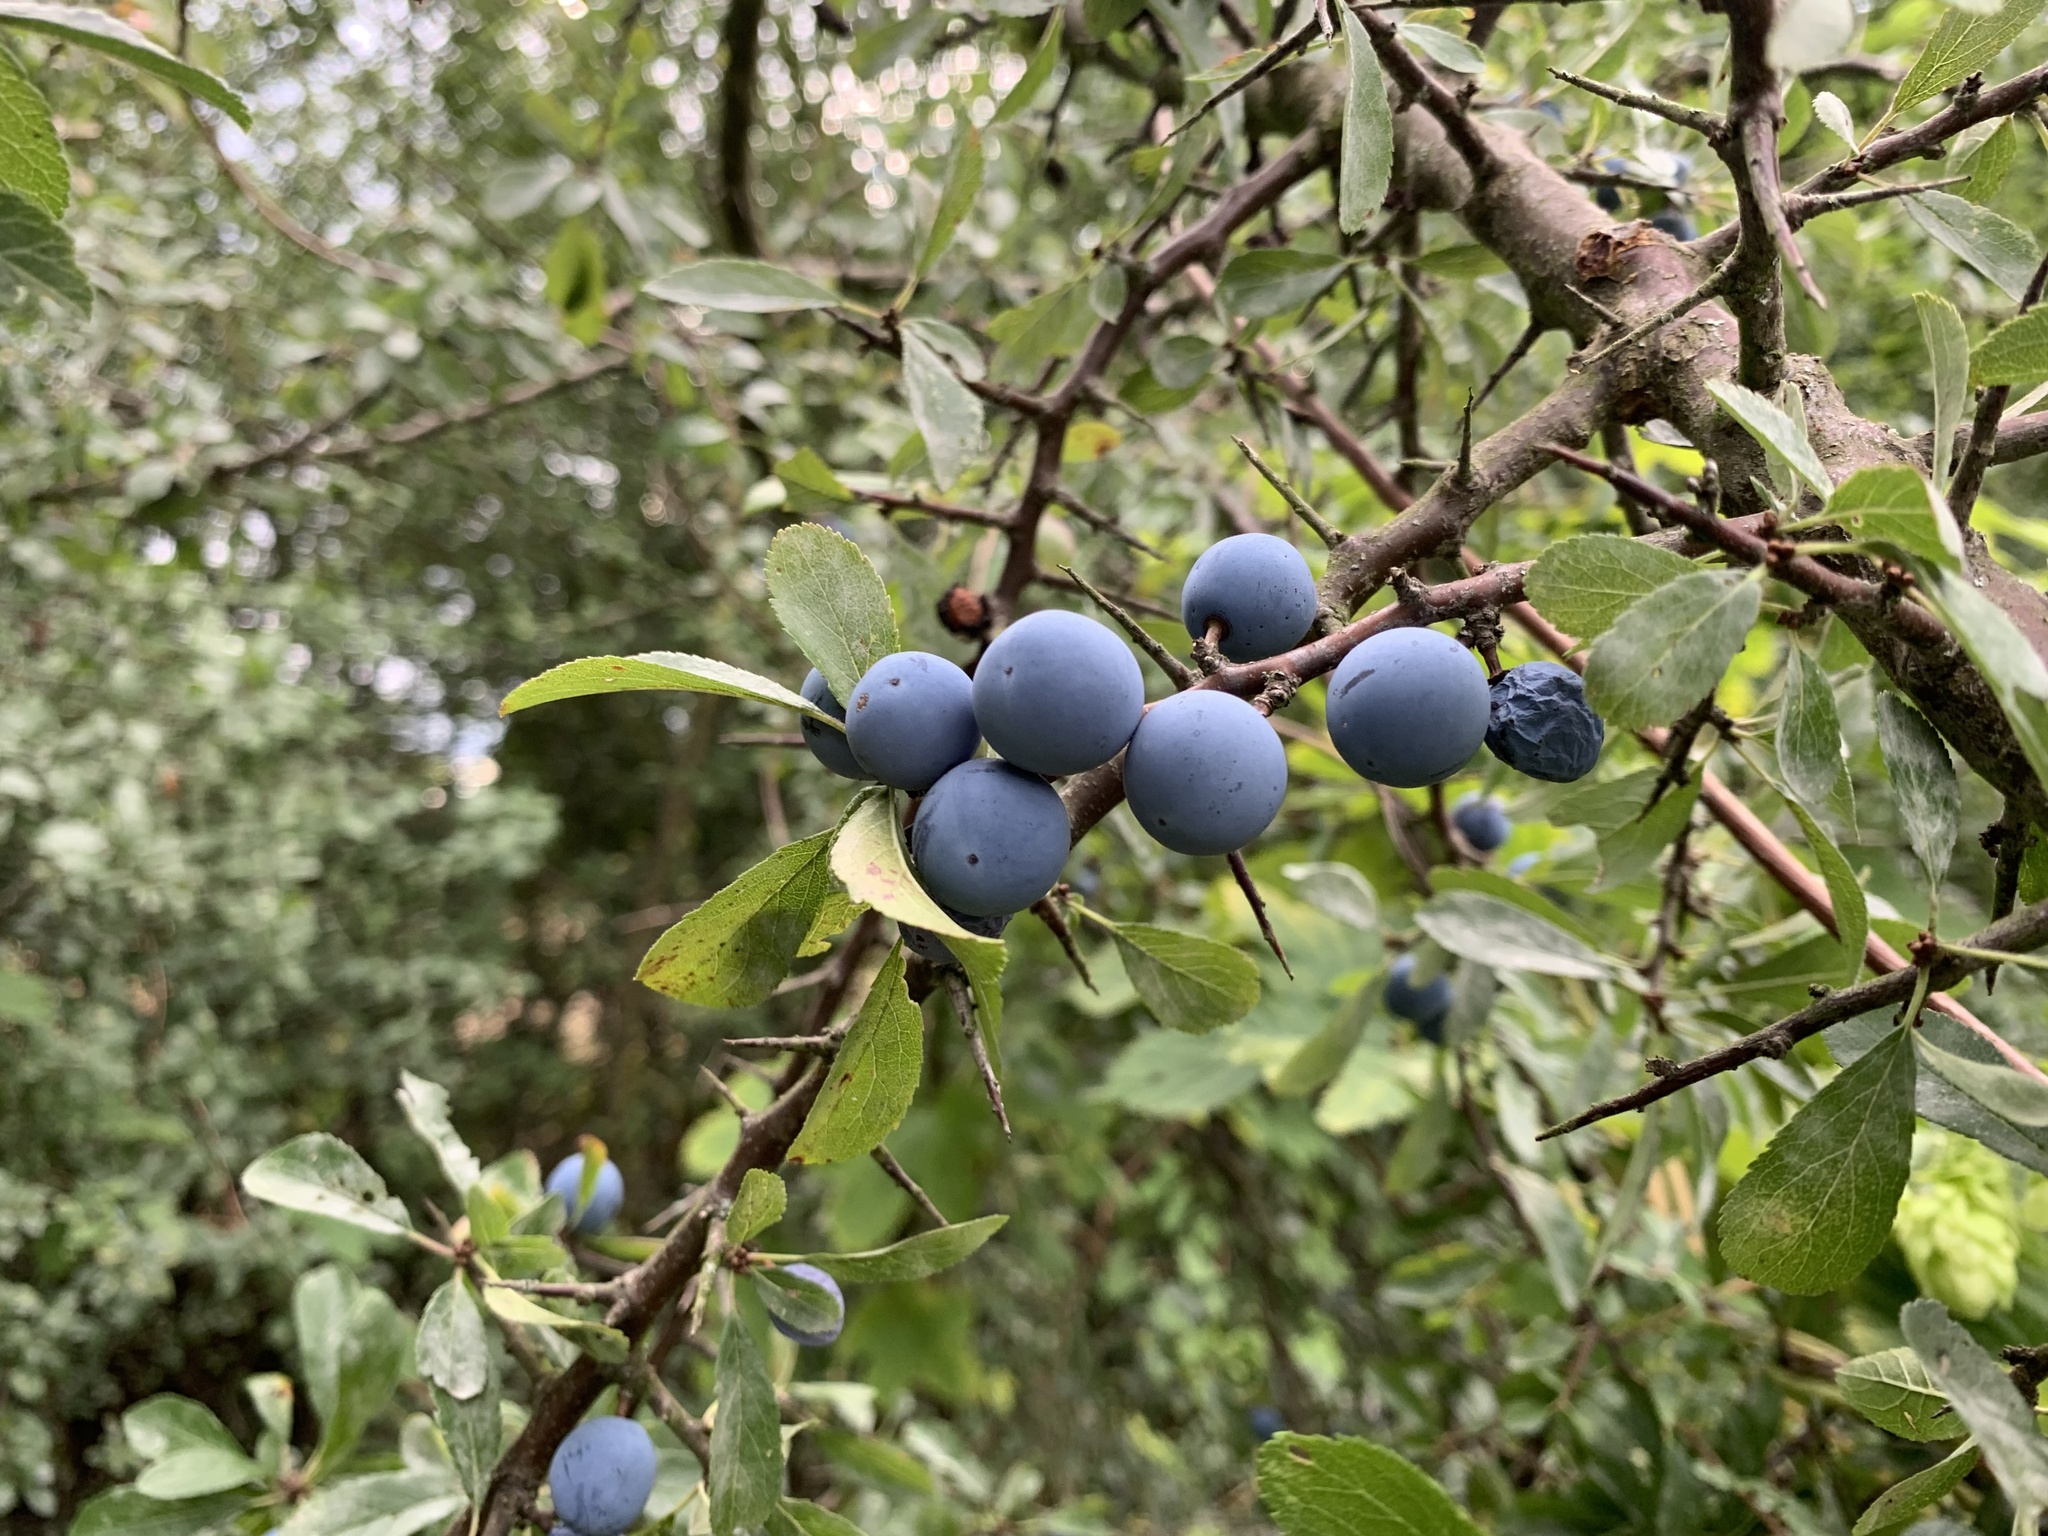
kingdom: Plantae
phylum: Tracheophyta
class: Magnoliopsida
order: Rosales
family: Rosaceae
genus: Prunus
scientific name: Prunus spinosa
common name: Blackthorn
